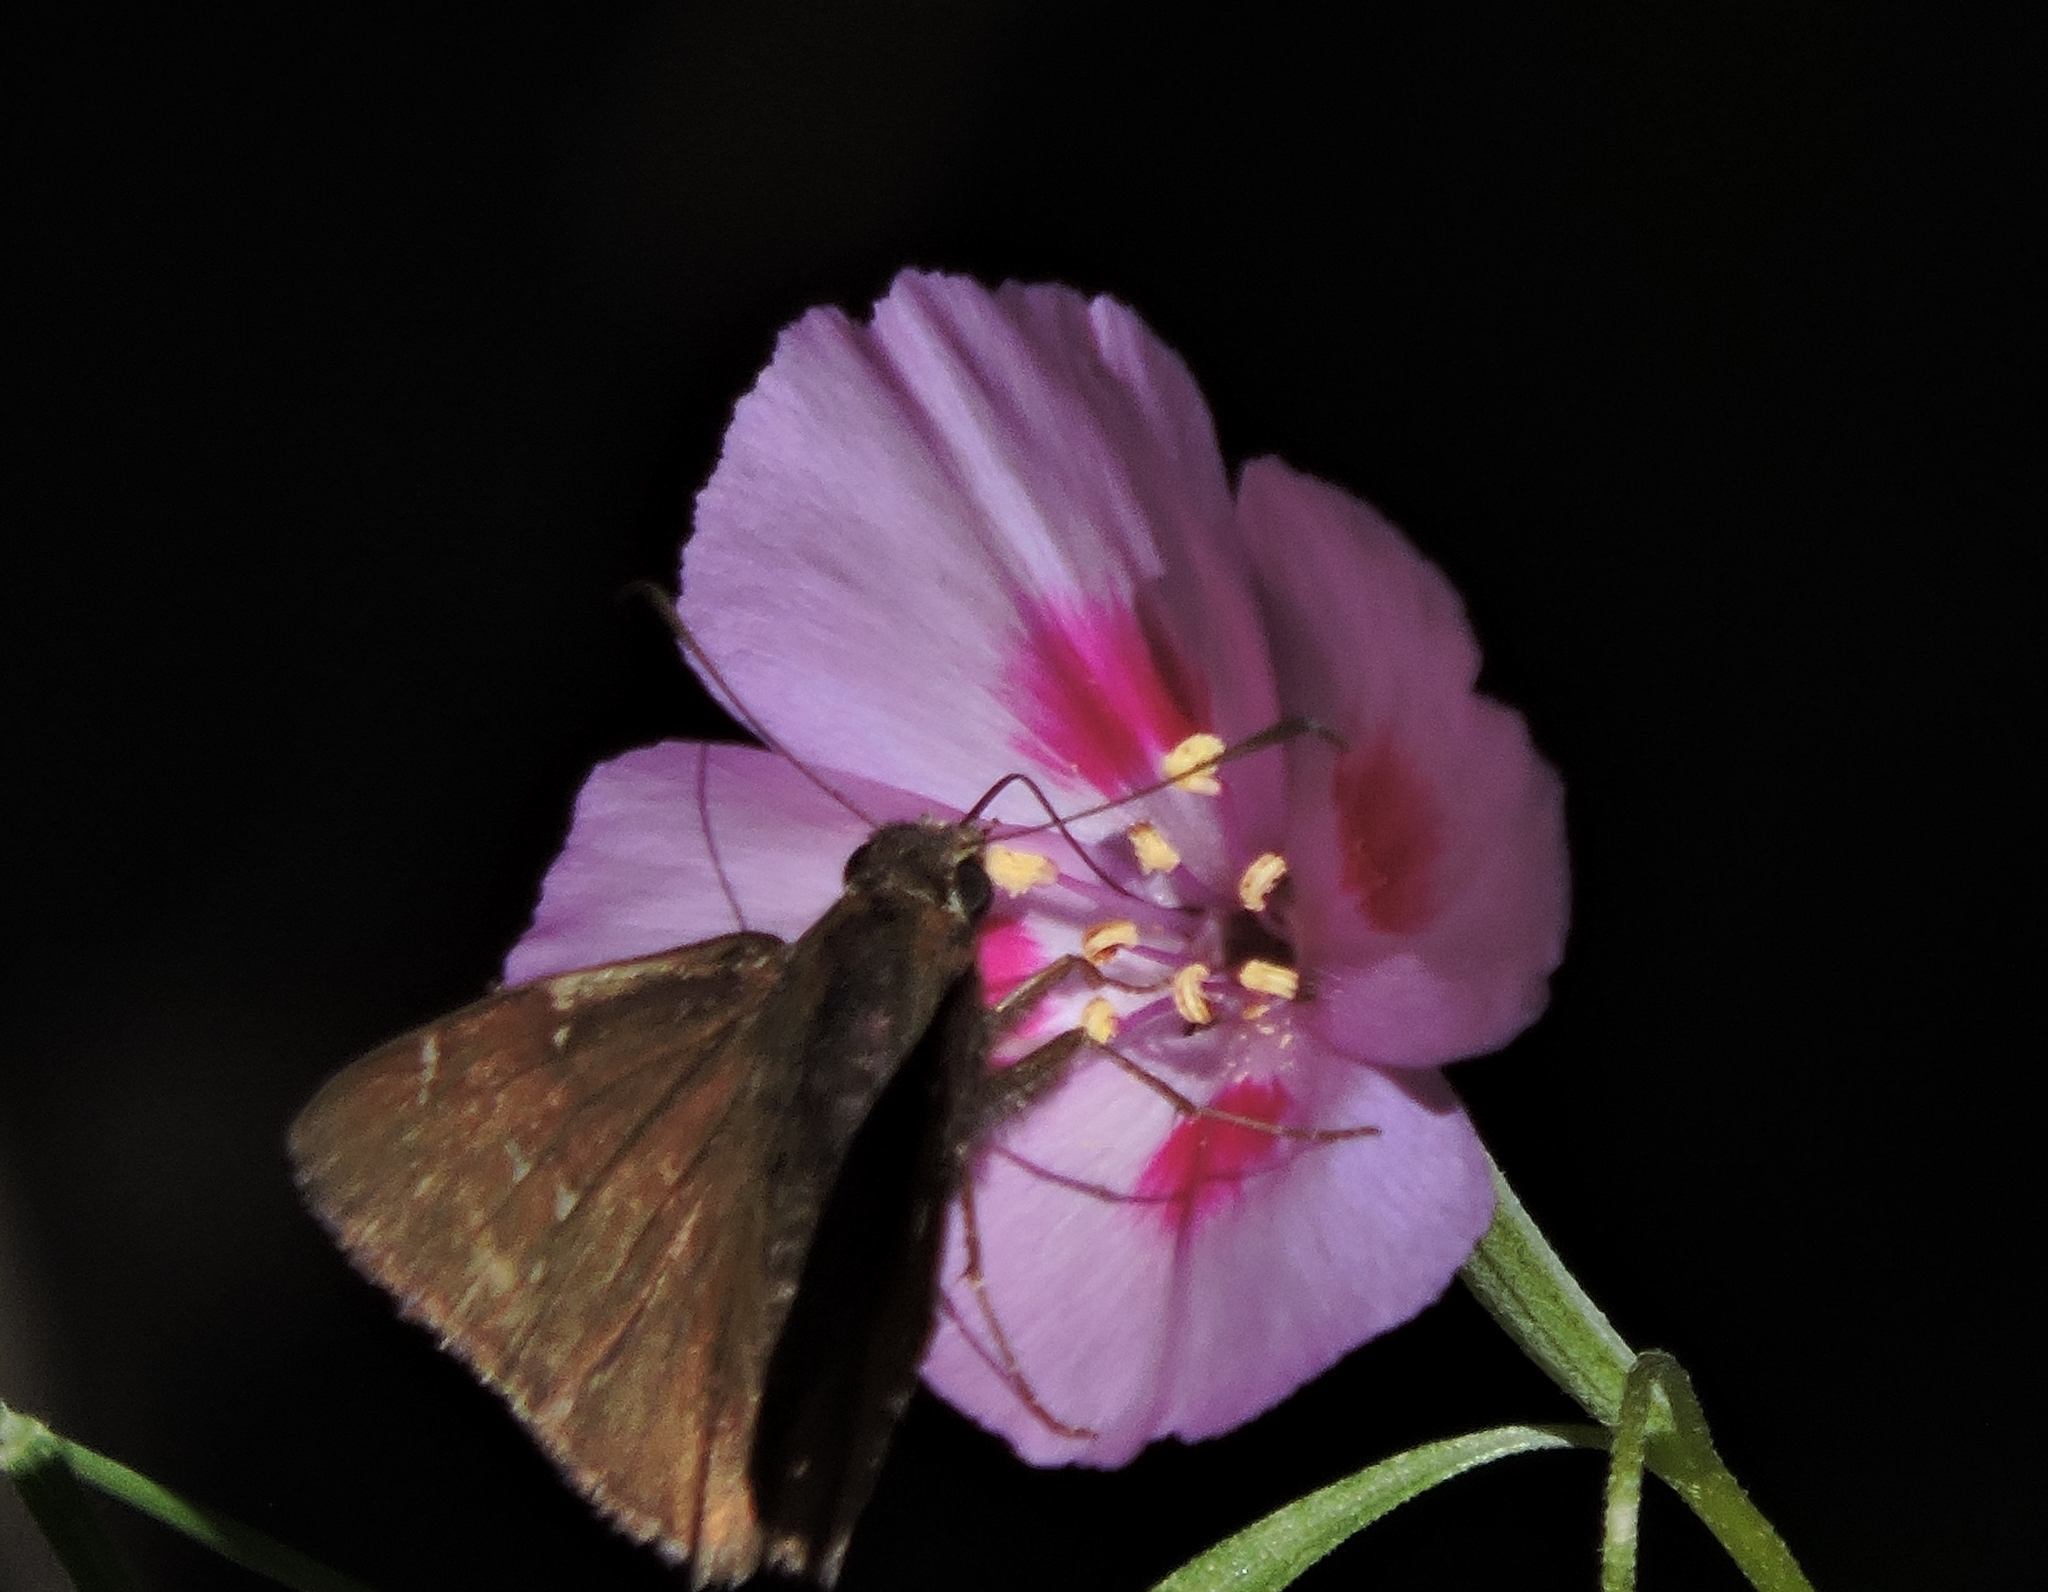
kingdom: Animalia
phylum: Arthropoda
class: Insecta
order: Lepidoptera
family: Hesperiidae
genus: Thorybes
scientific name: Thorybes pylades
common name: Northern cloudywing
